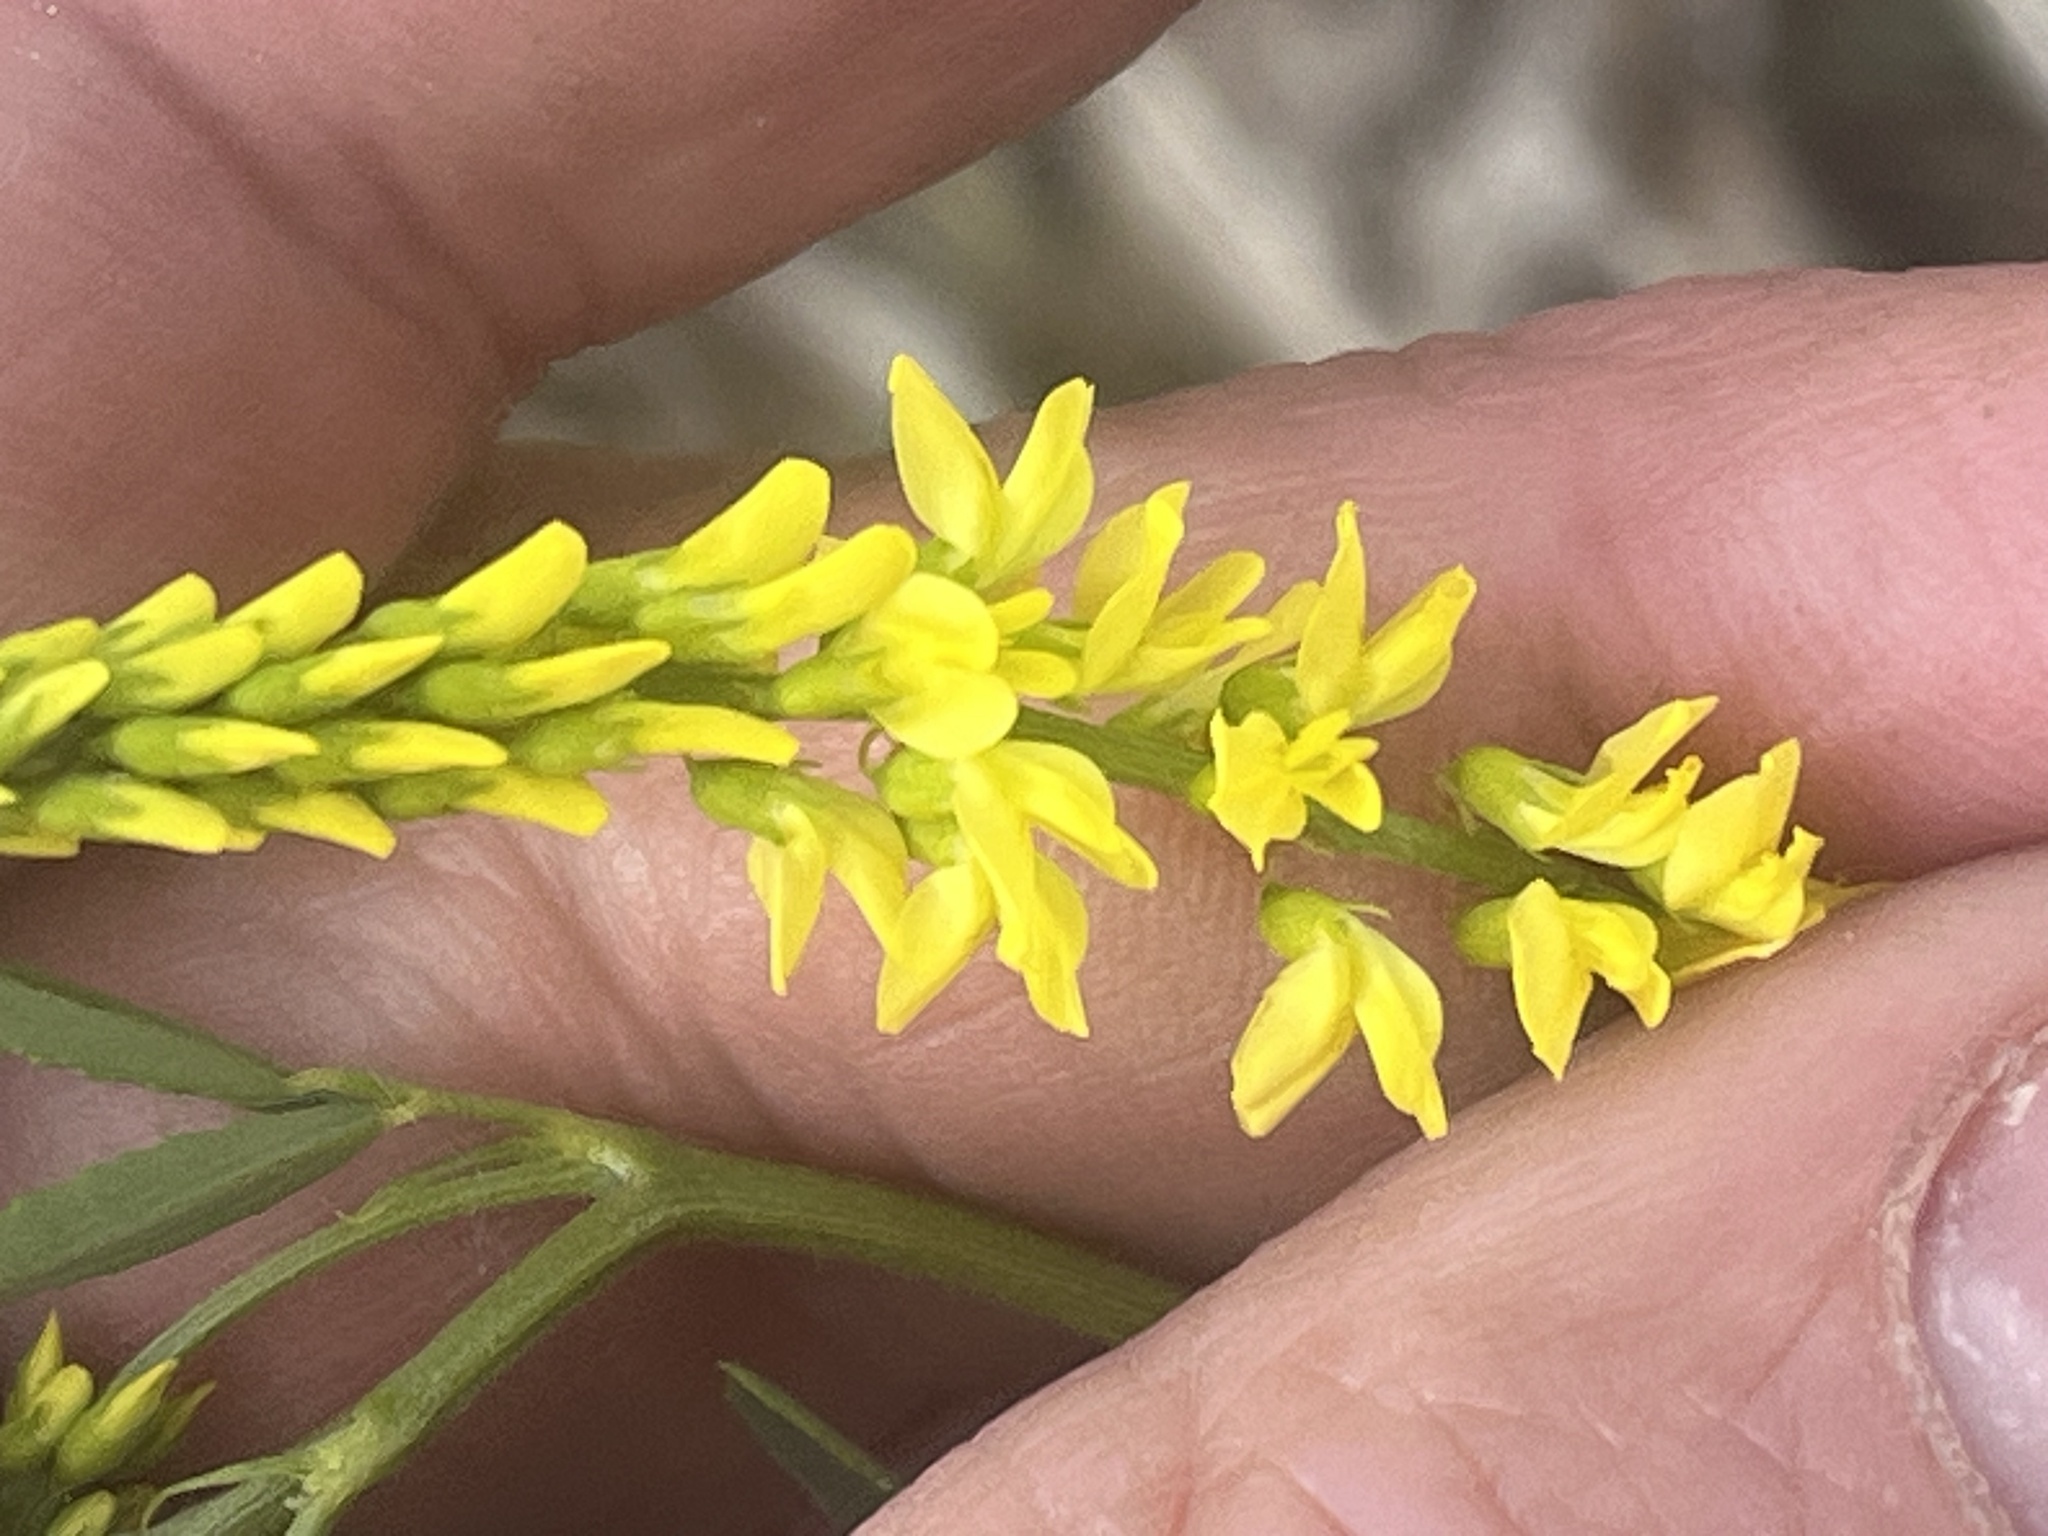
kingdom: Plantae
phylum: Tracheophyta
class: Magnoliopsida
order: Fabales
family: Fabaceae
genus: Melilotus
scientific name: Melilotus officinalis
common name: Sweetclover
